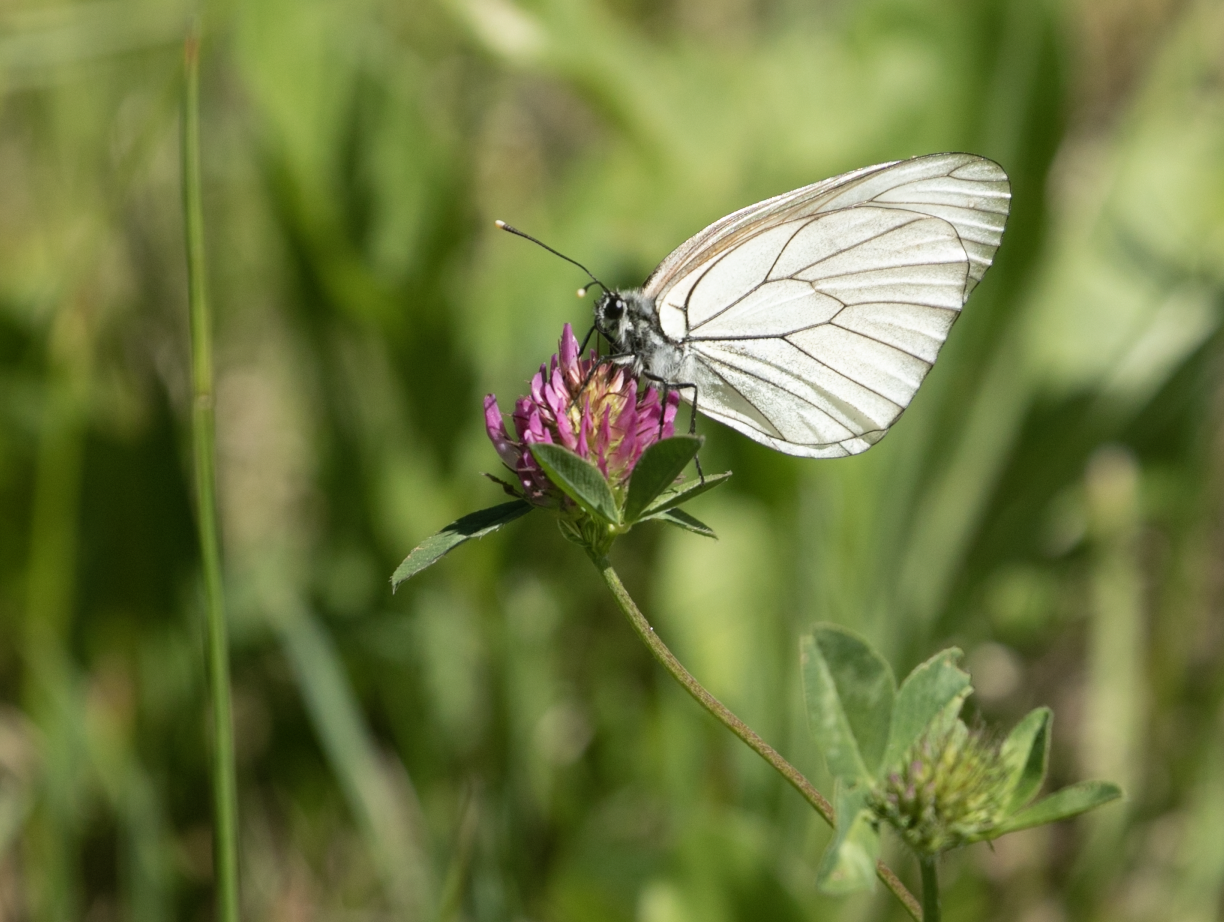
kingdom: Animalia
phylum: Arthropoda
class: Insecta
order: Lepidoptera
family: Pieridae
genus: Aporia
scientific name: Aporia crataegi
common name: Black-veined white
